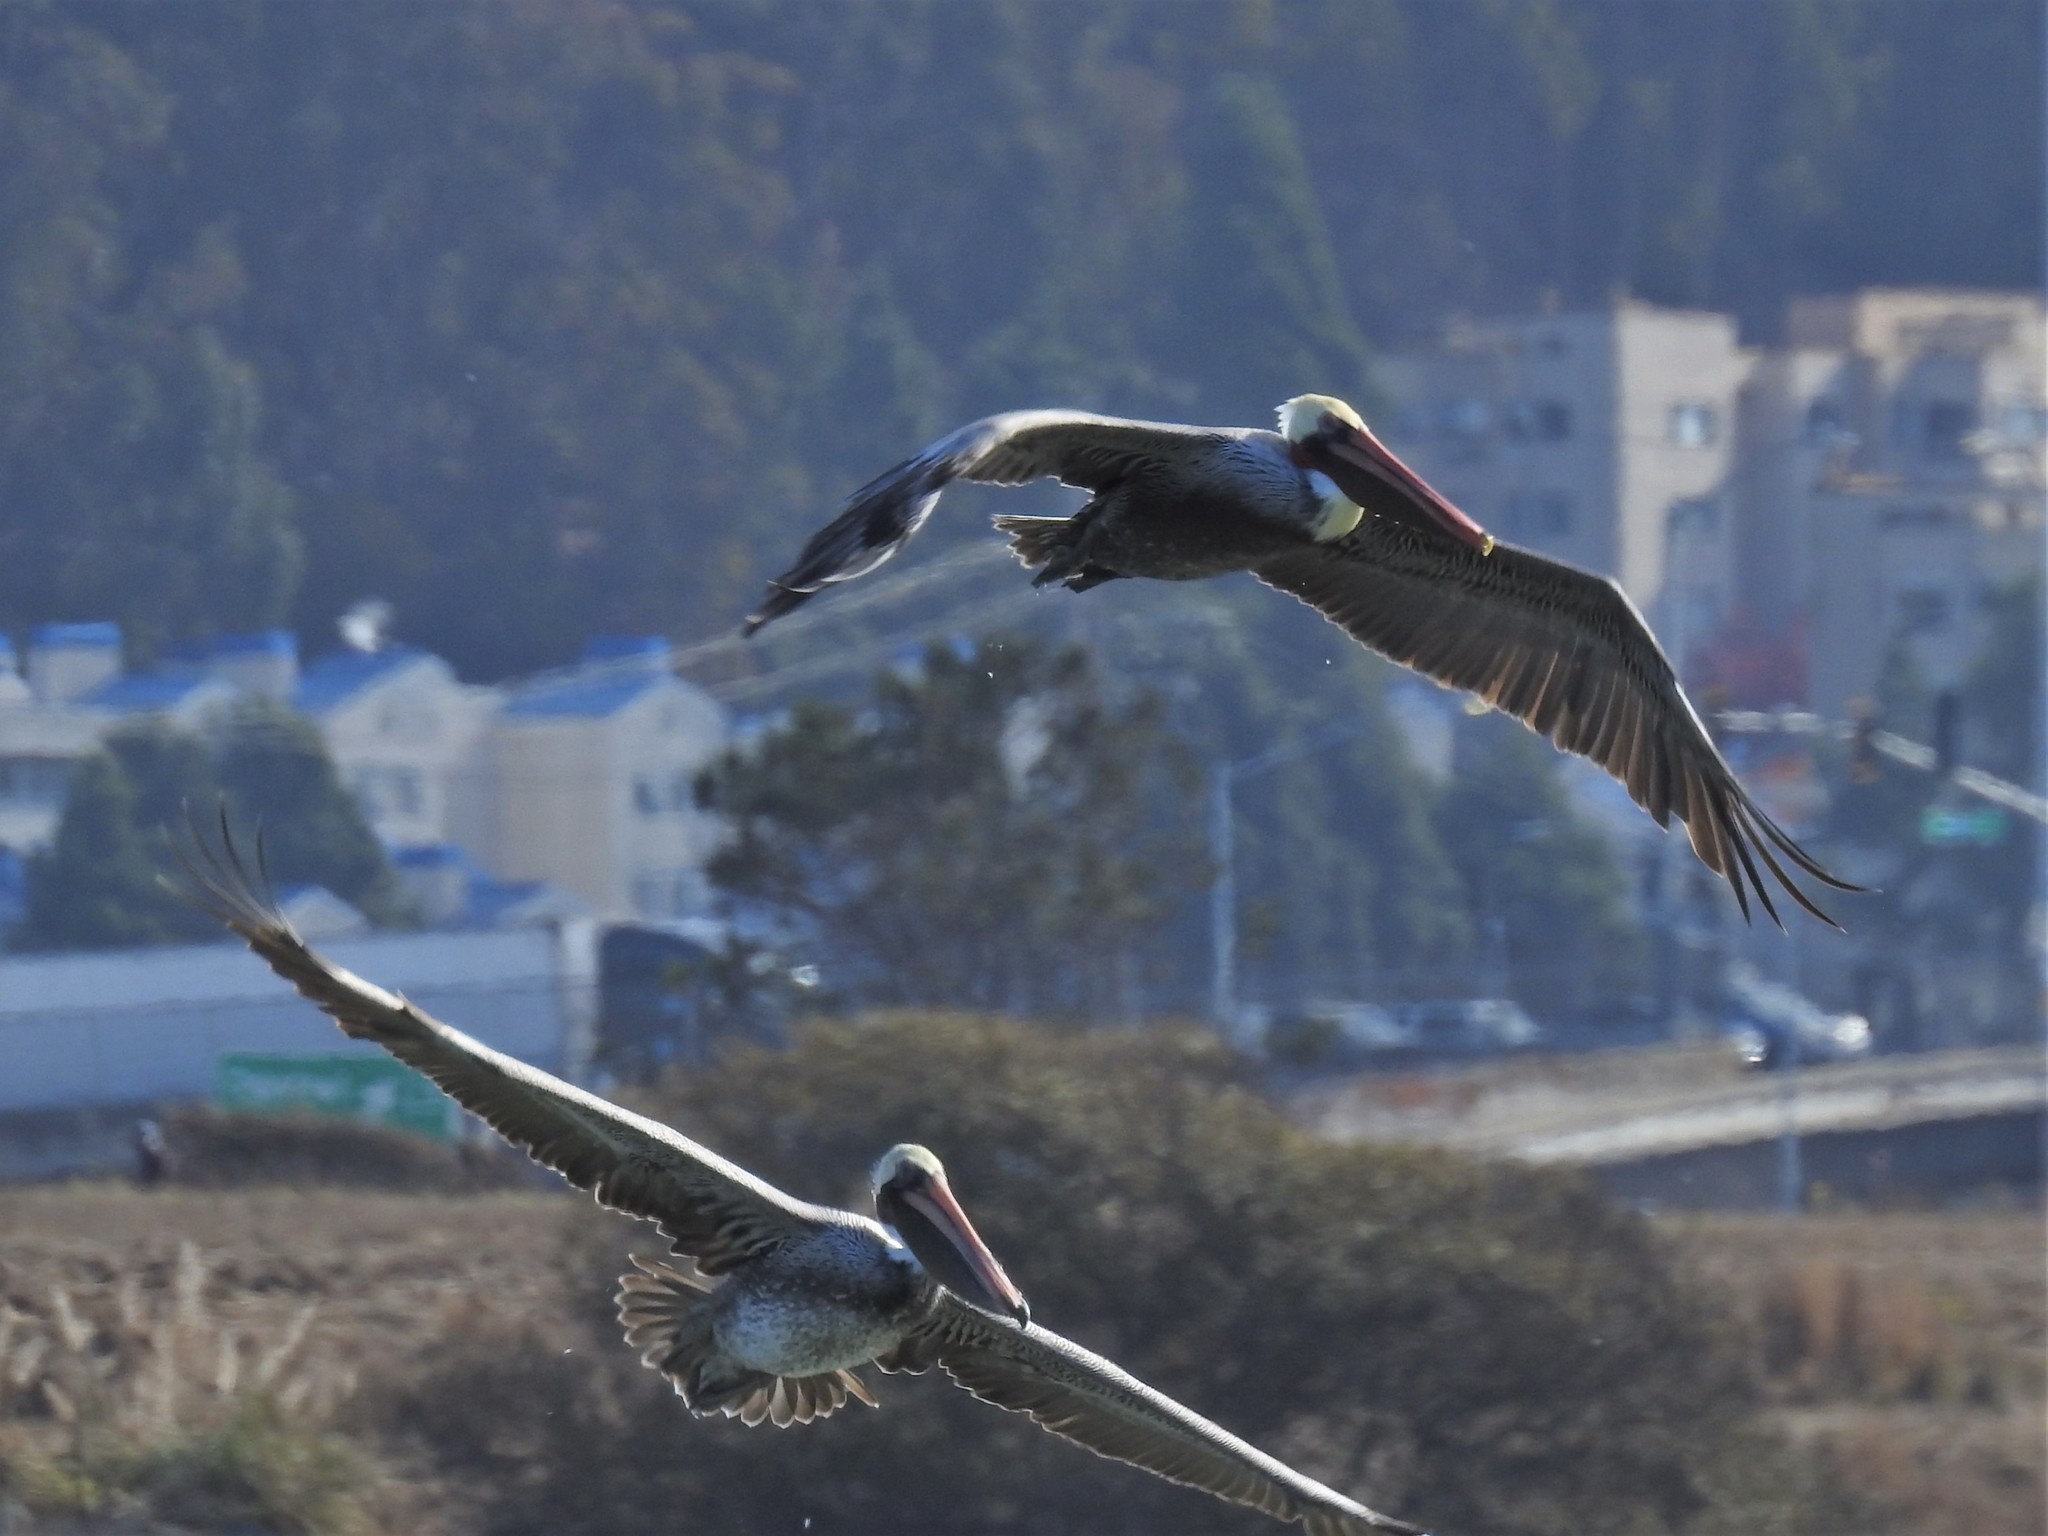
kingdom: Animalia
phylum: Chordata
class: Aves
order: Pelecaniformes
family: Pelecanidae
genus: Pelecanus
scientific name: Pelecanus occidentalis
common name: Brown pelican
